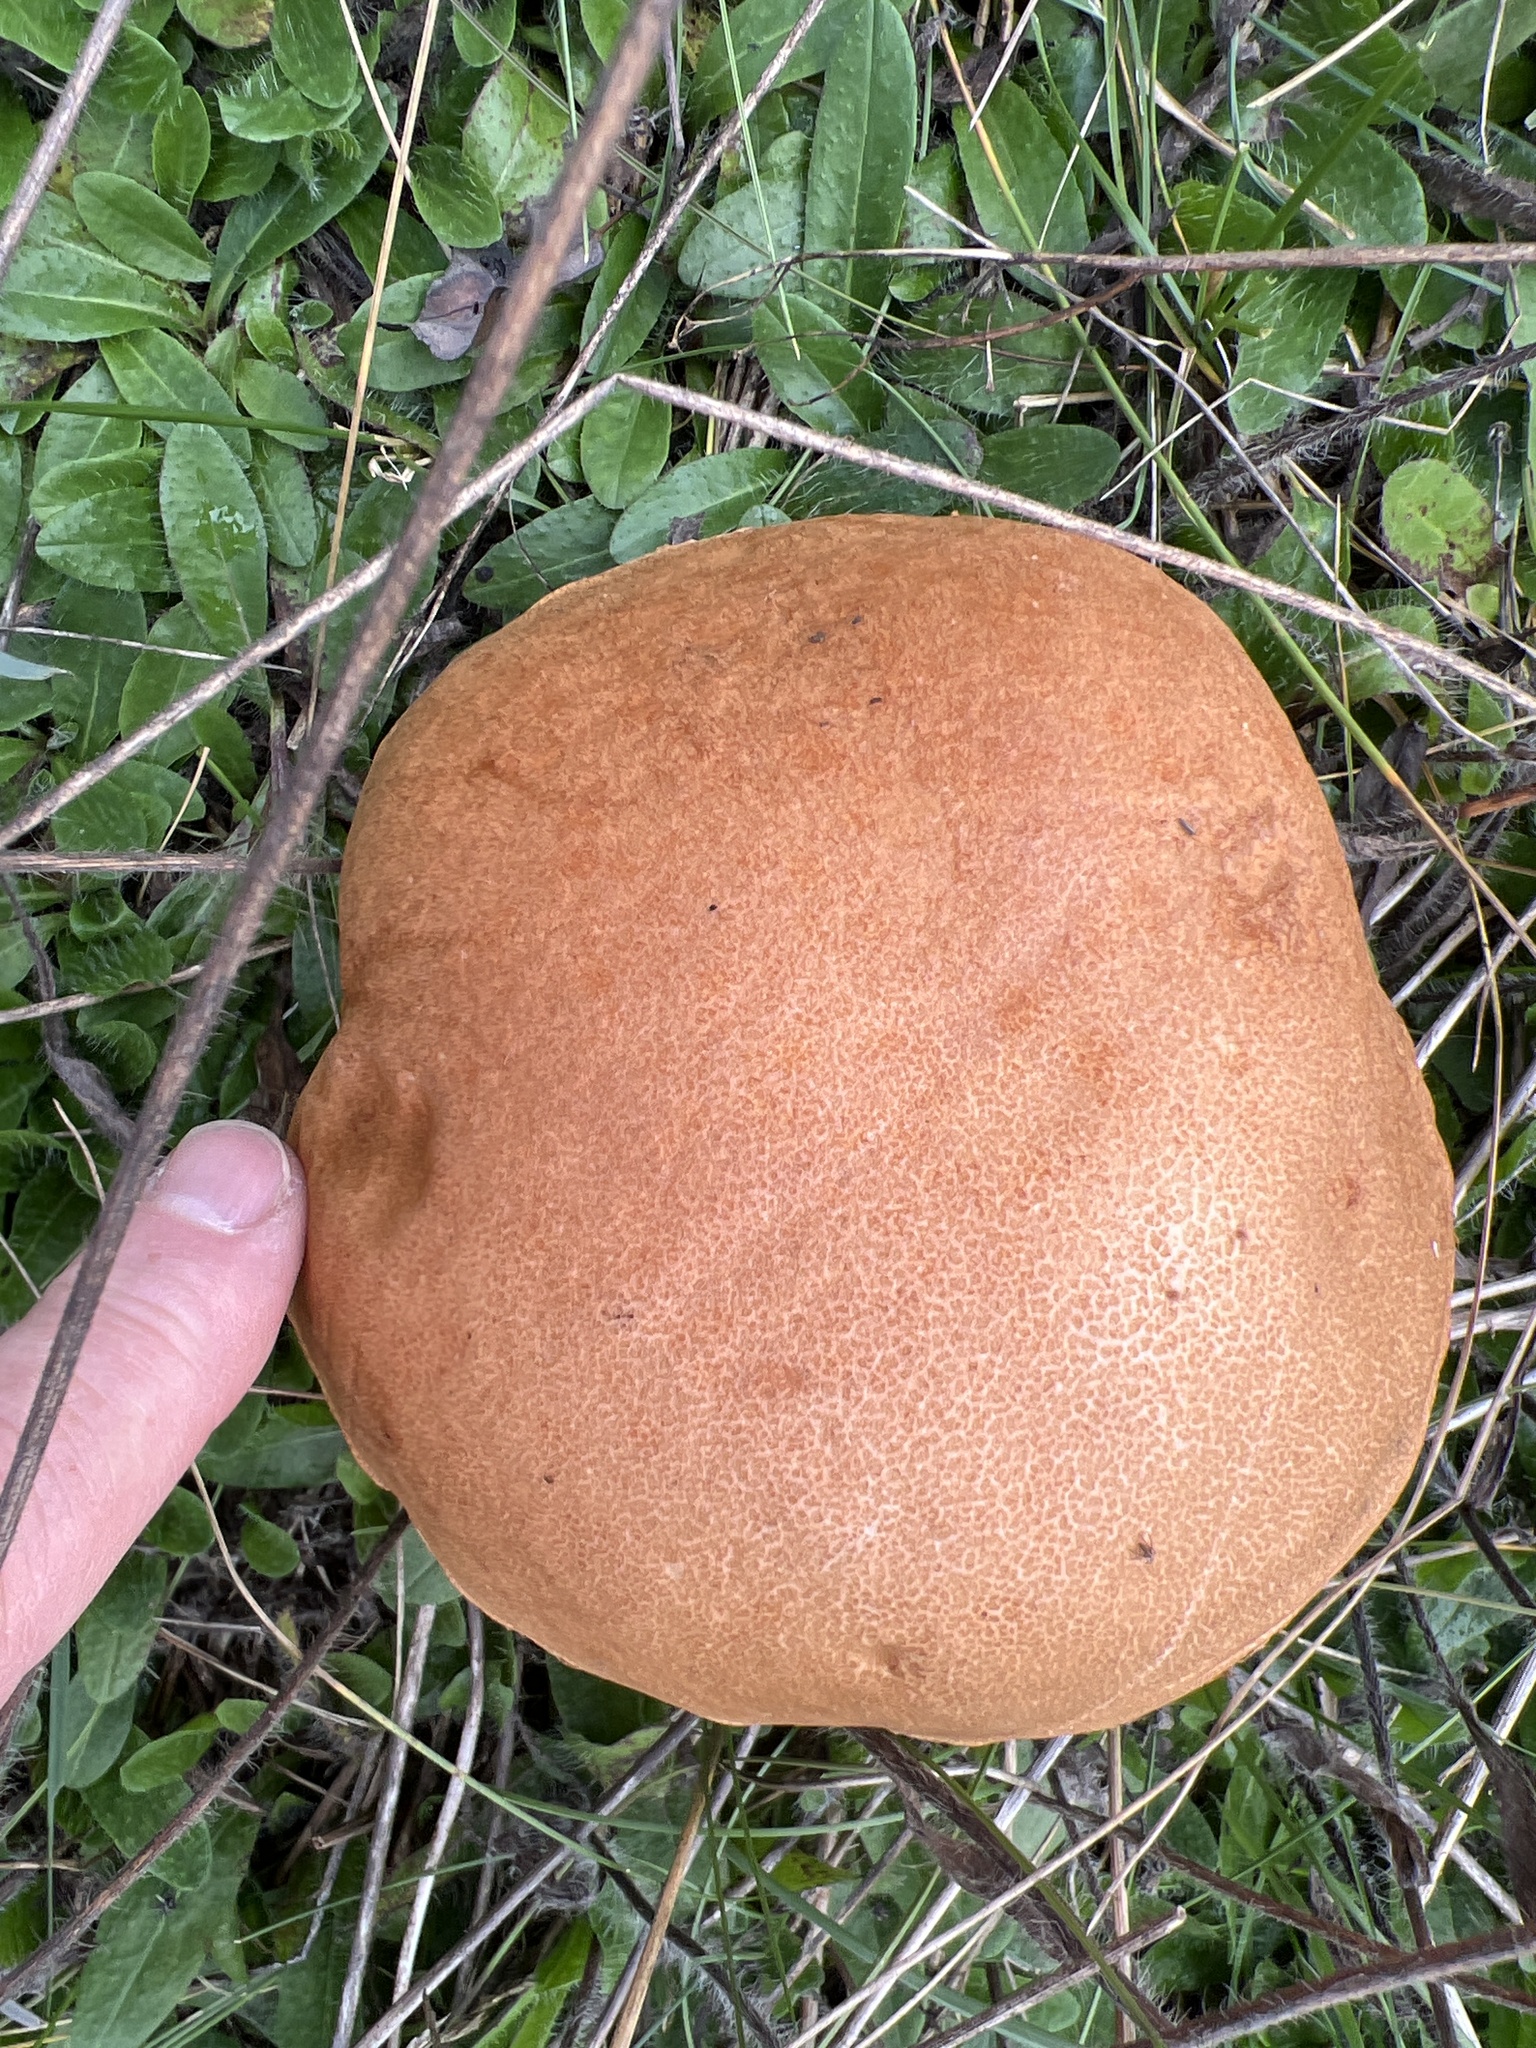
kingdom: Fungi
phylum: Basidiomycota
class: Agaricomycetes
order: Boletales
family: Boletaceae
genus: Leccinum
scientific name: Leccinum insigne
